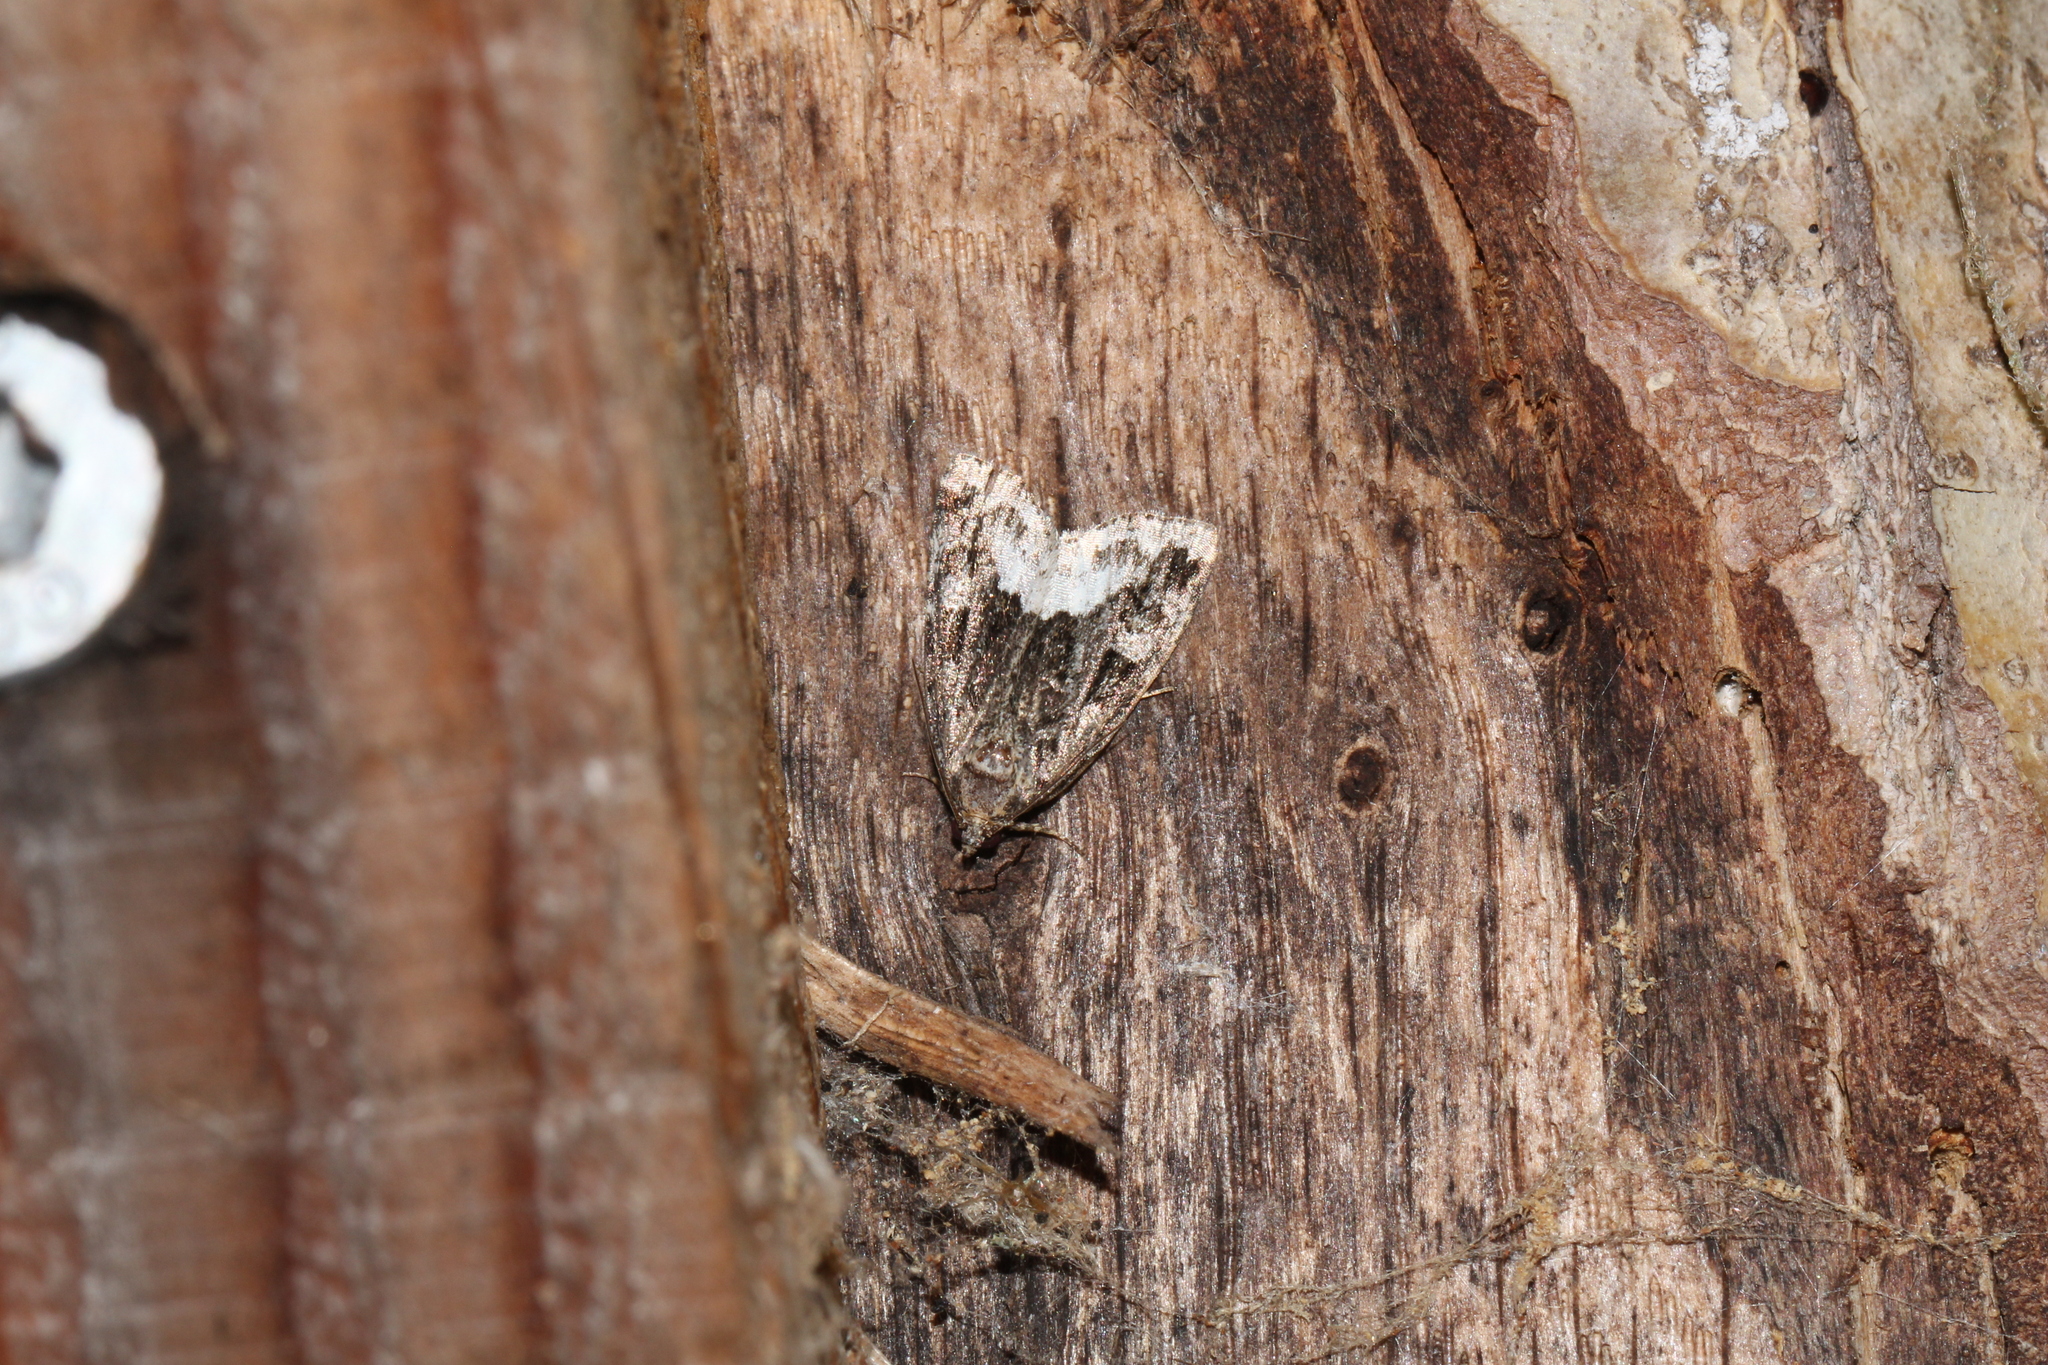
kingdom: Animalia
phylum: Arthropoda
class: Insecta
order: Lepidoptera
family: Noctuidae
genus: Deltote
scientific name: Deltote pygarga
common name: Marbled white spot
